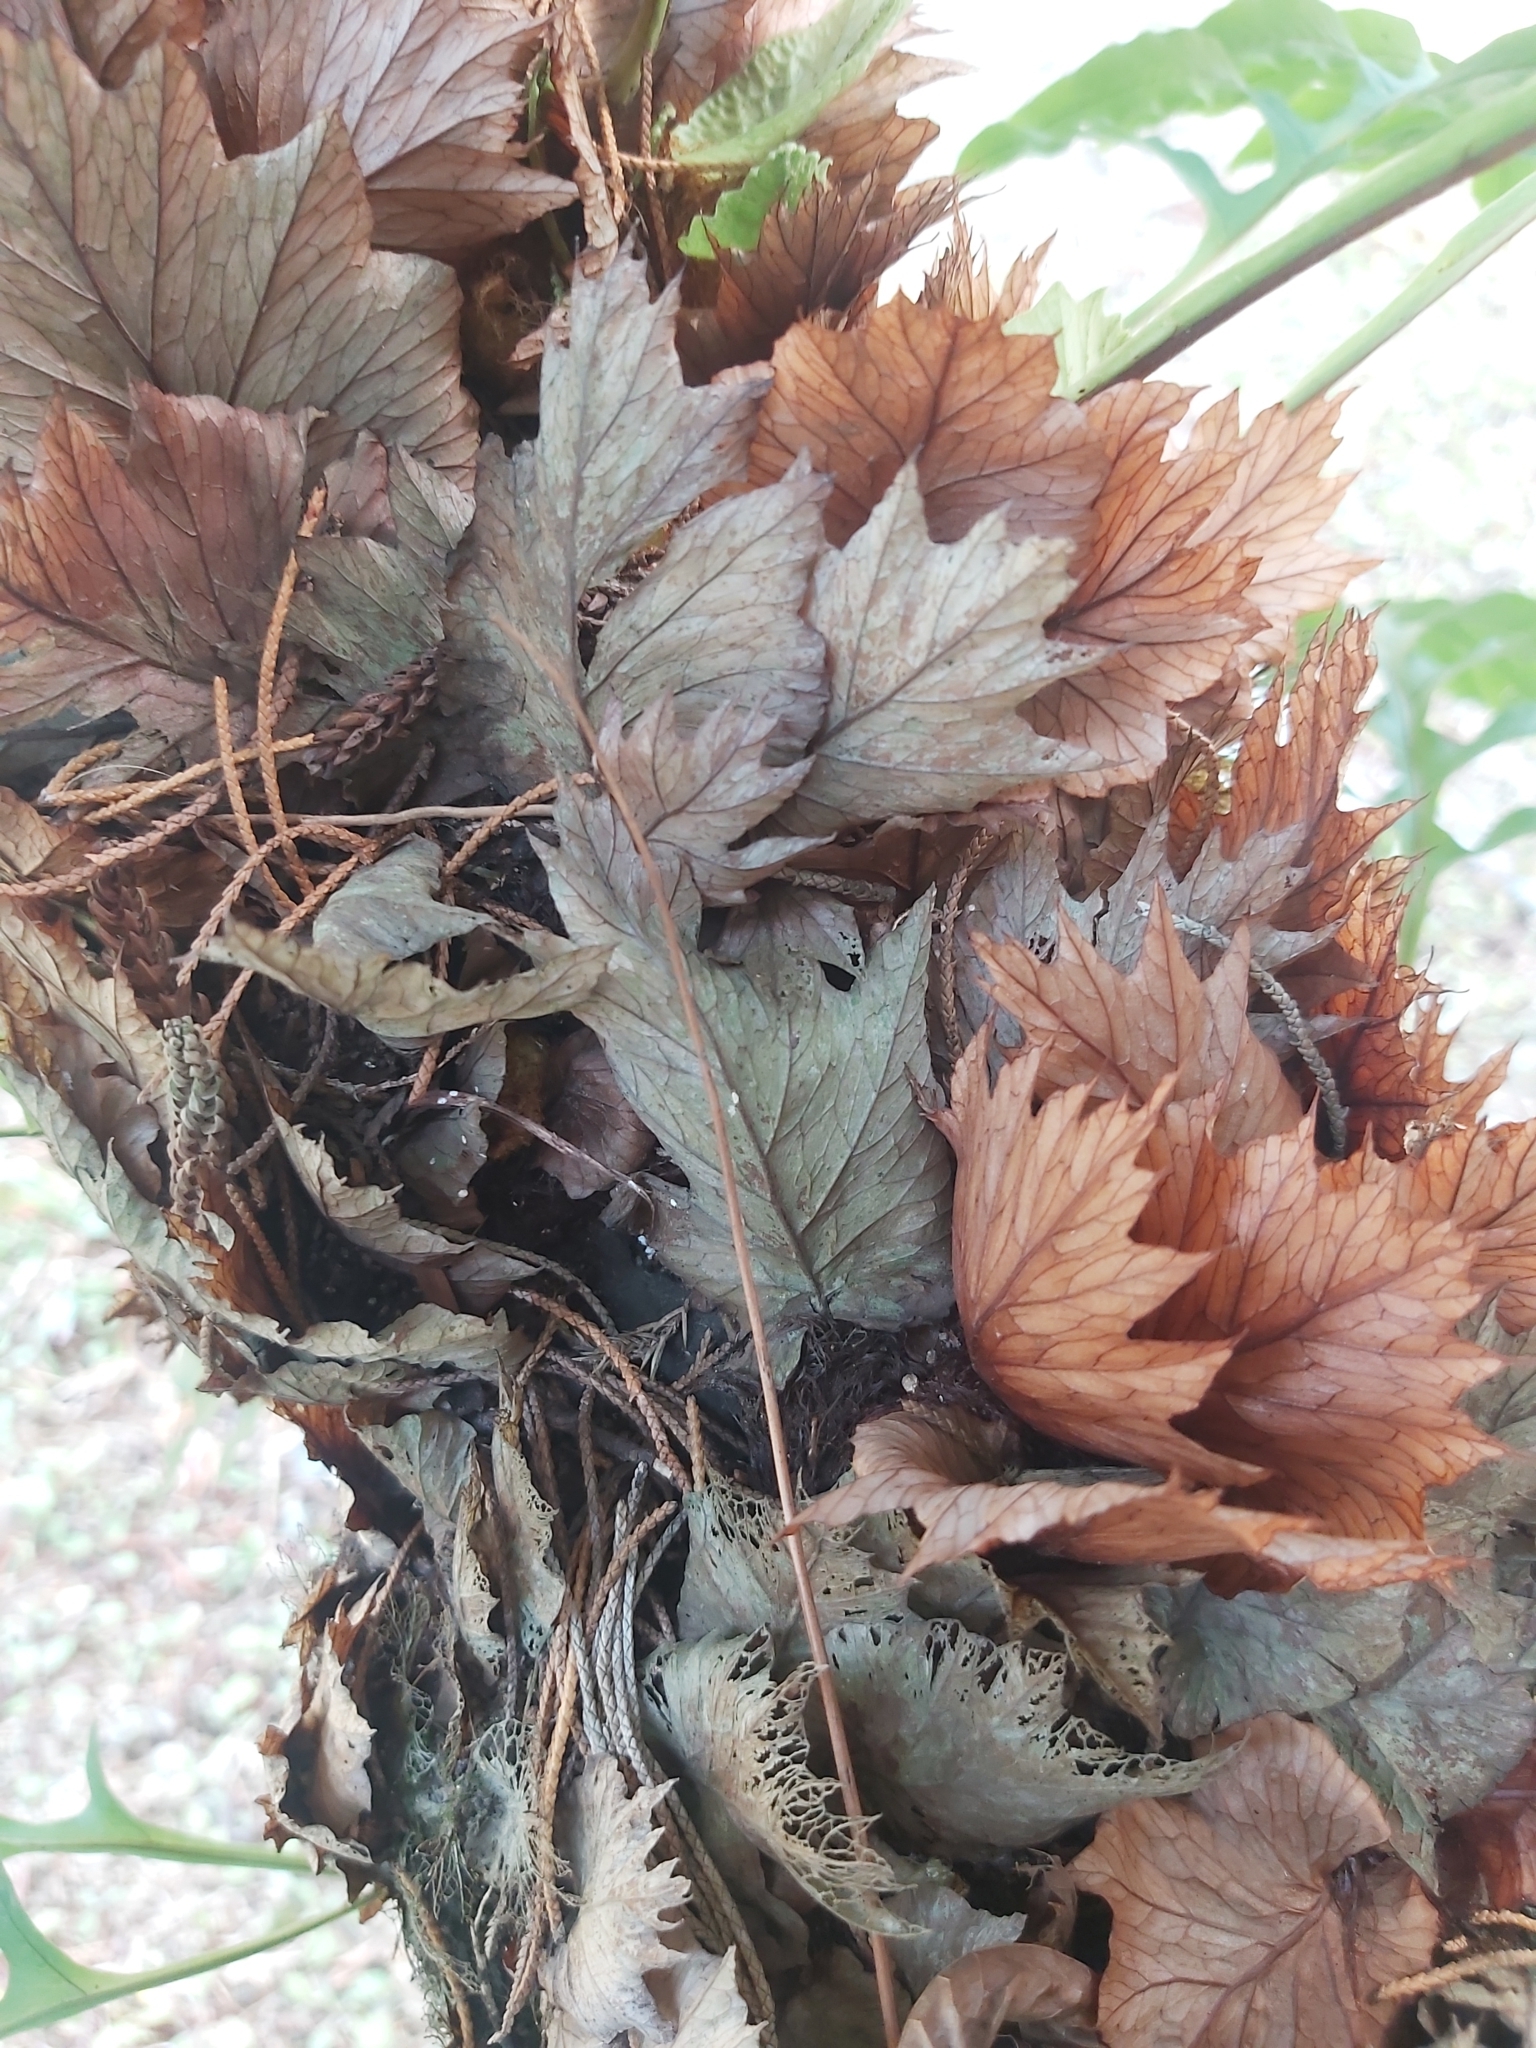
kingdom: Plantae
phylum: Tracheophyta
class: Polypodiopsida
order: Polypodiales
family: Polypodiaceae
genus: Drynaria
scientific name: Drynaria roosii
